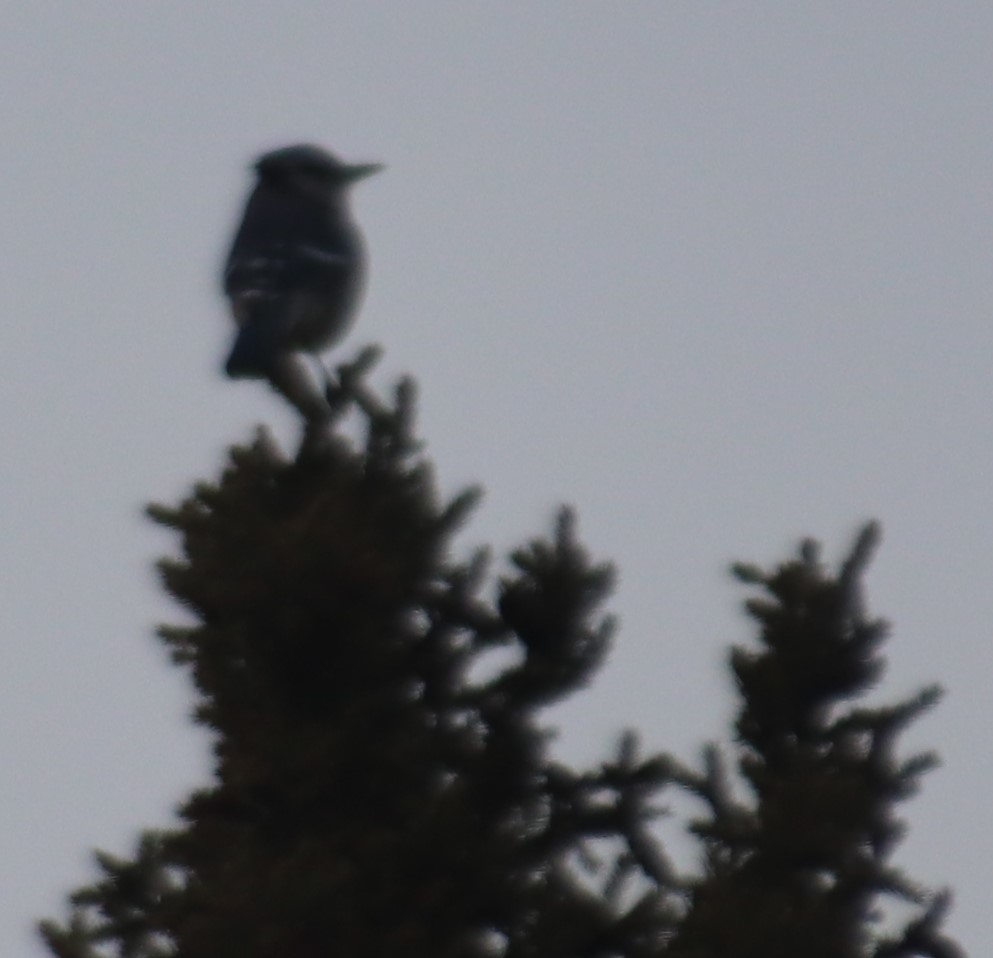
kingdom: Animalia
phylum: Chordata
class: Aves
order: Passeriformes
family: Corvidae
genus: Cyanocitta
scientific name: Cyanocitta cristata
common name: Blue jay
